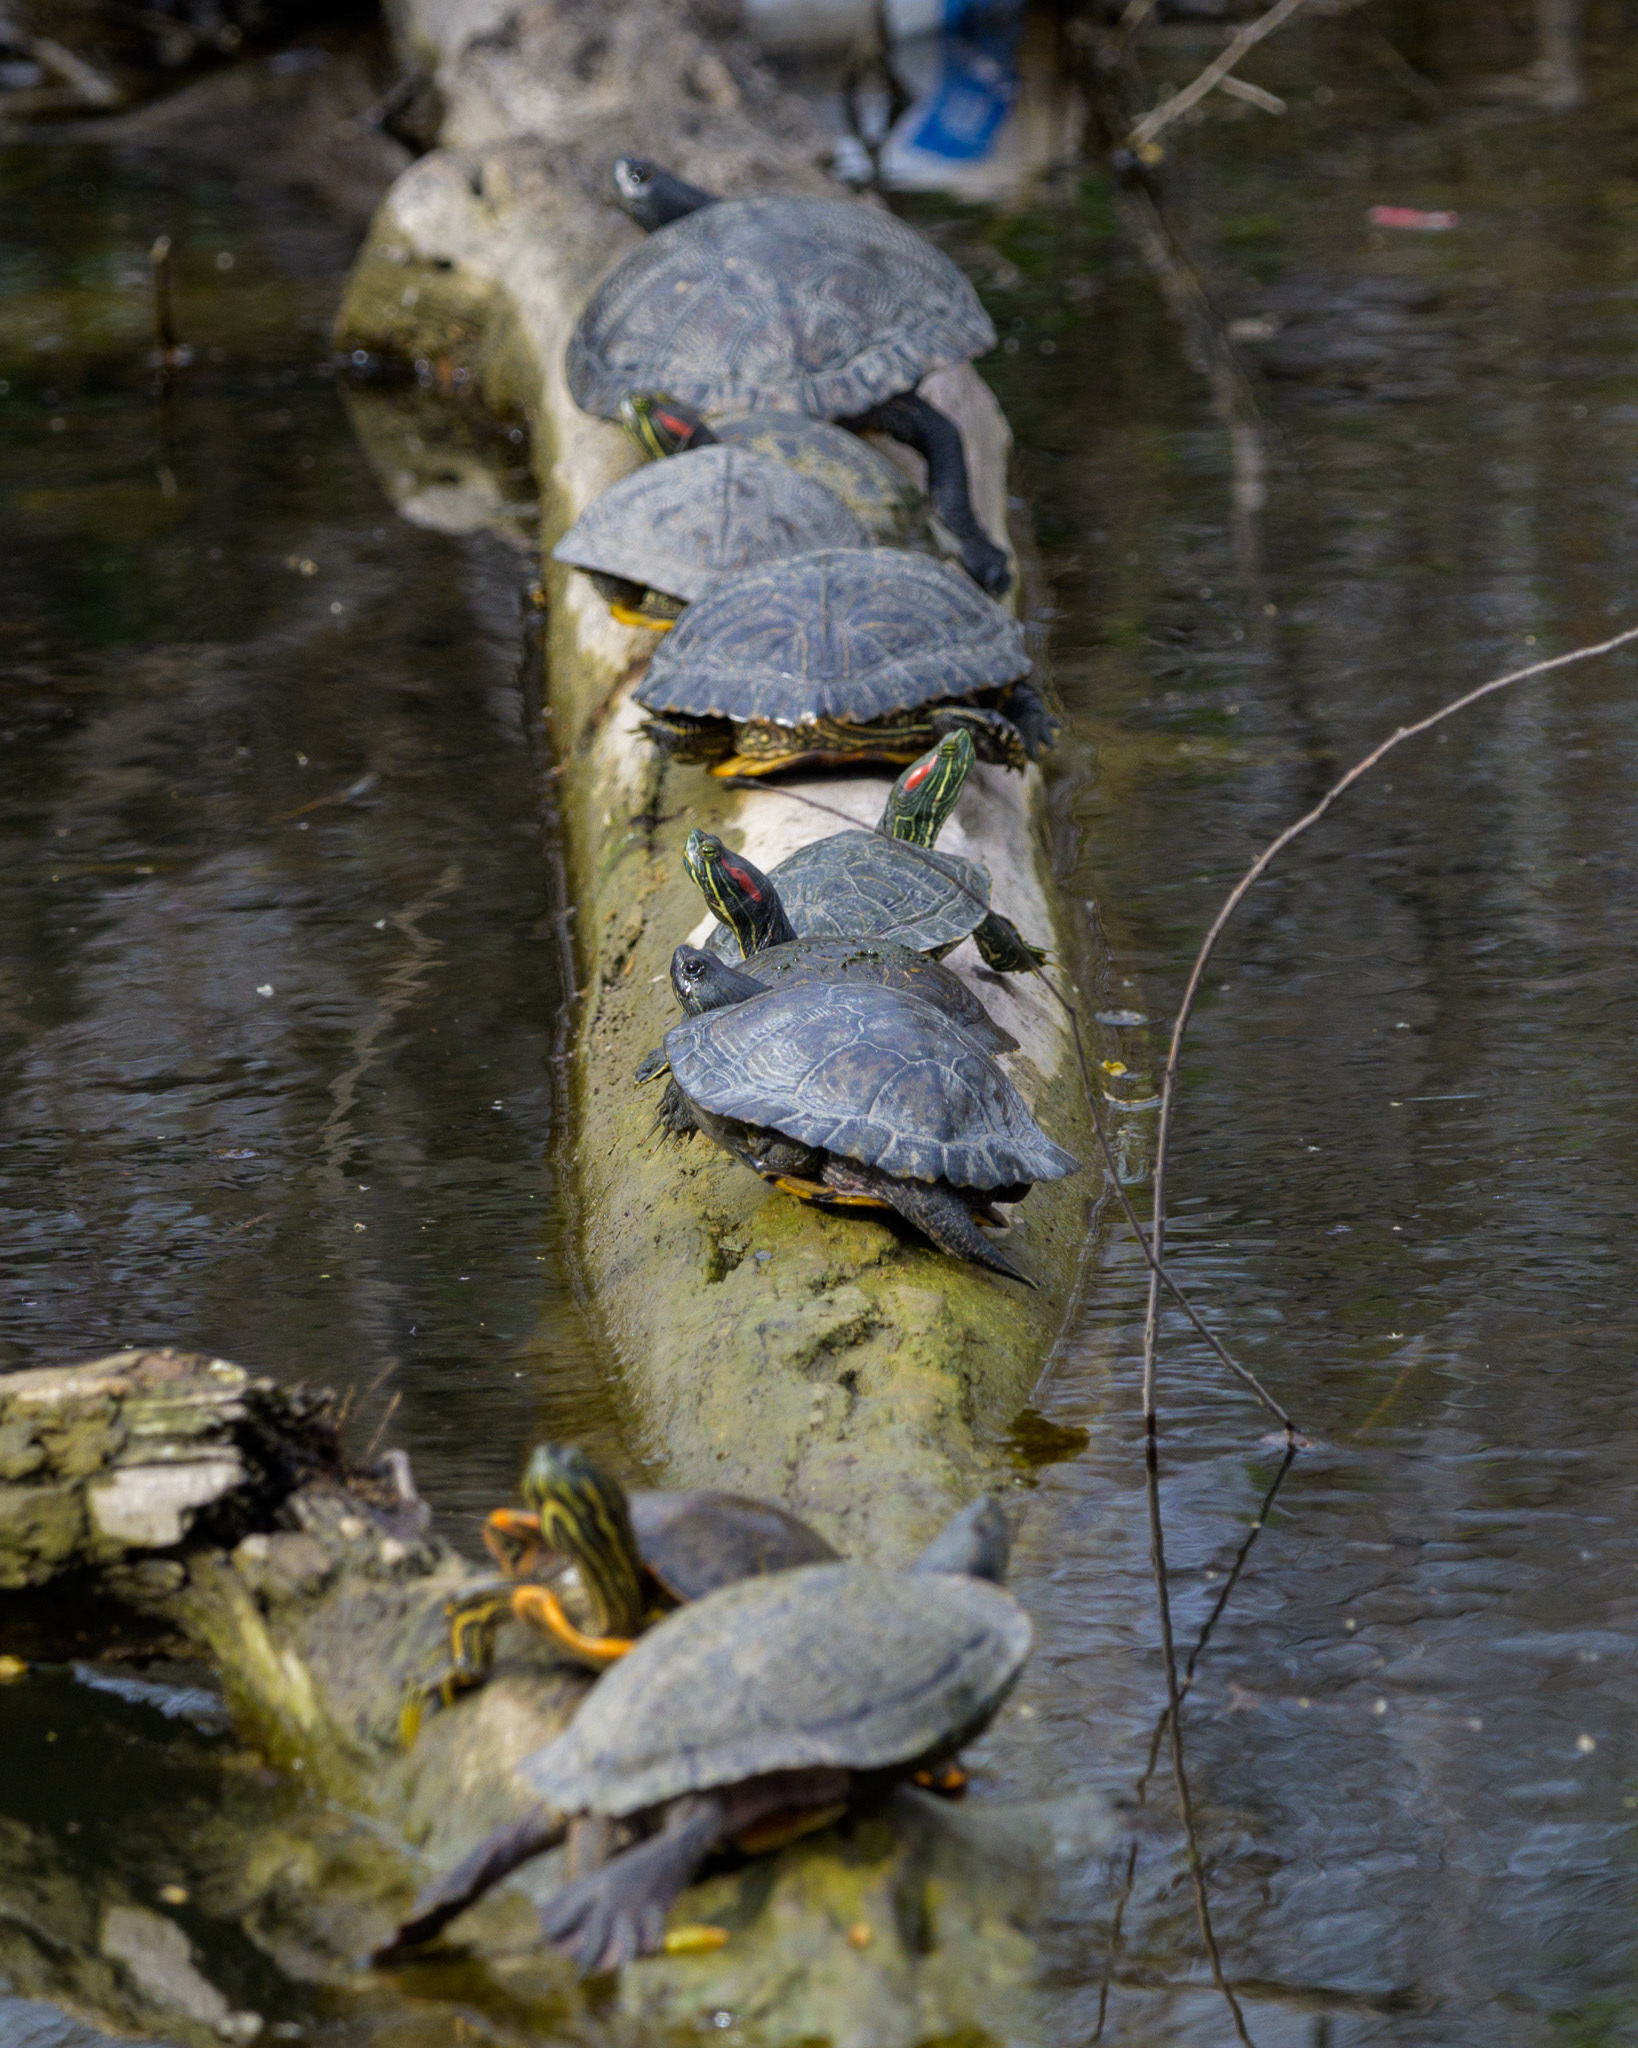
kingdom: Animalia
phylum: Chordata
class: Testudines
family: Emydidae
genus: Trachemys
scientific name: Trachemys scripta
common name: Slider
